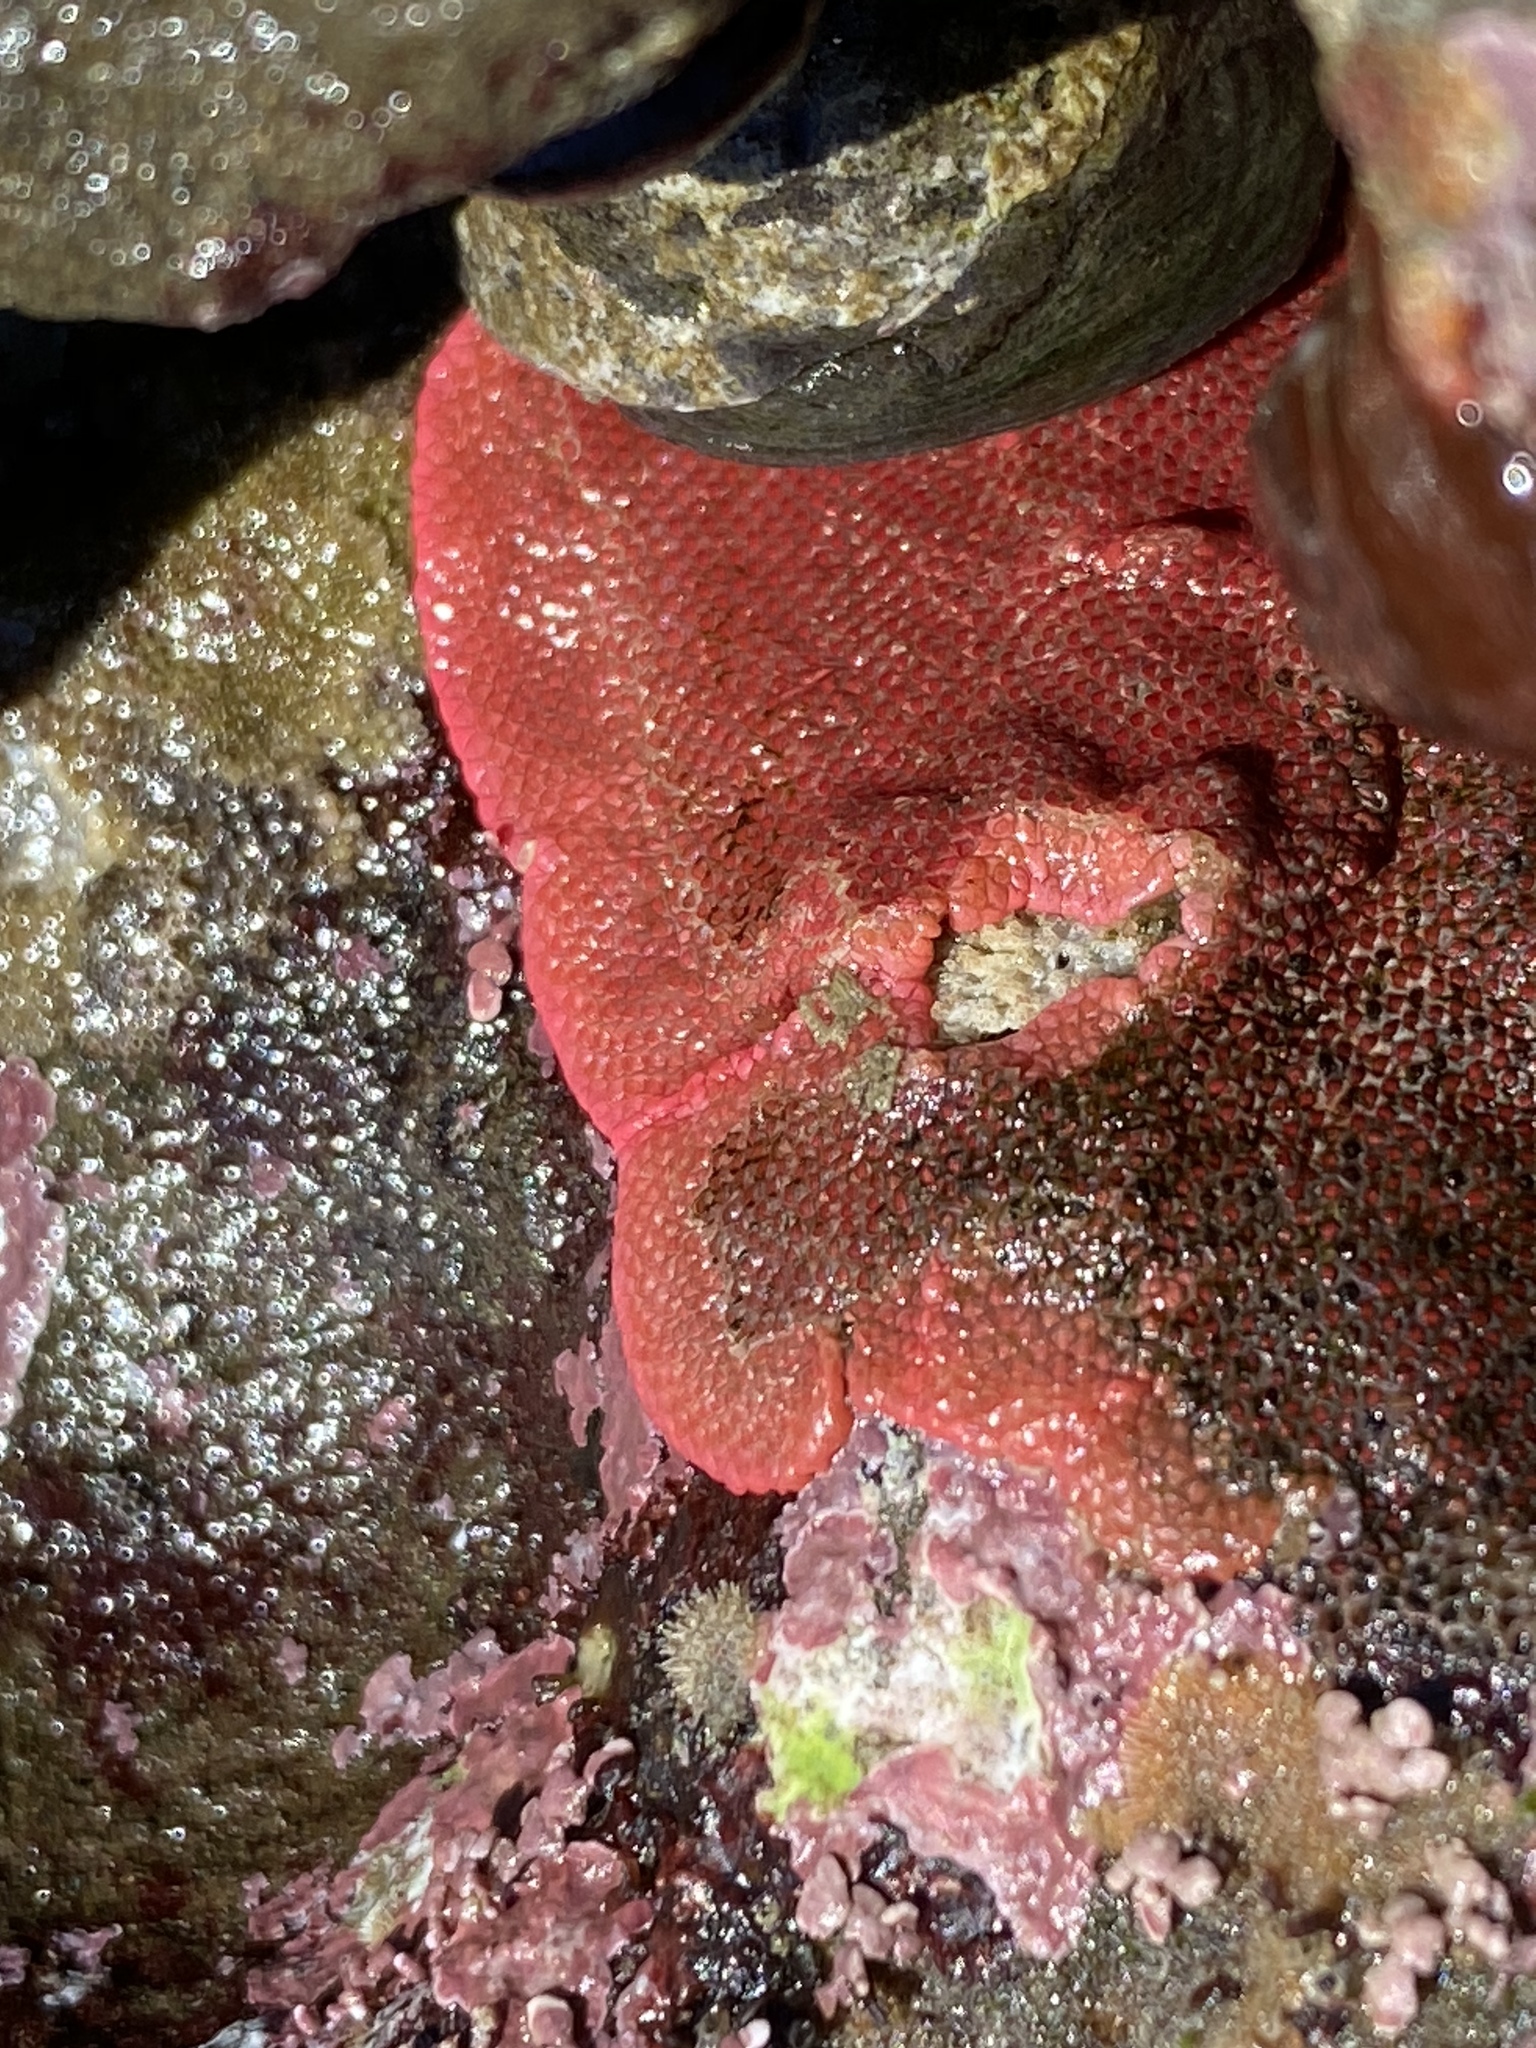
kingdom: Animalia
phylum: Bryozoa
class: Gymnolaemata
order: Cheilostomatida
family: Eurystomellidae
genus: Integripelta
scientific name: Integripelta bilabiata
